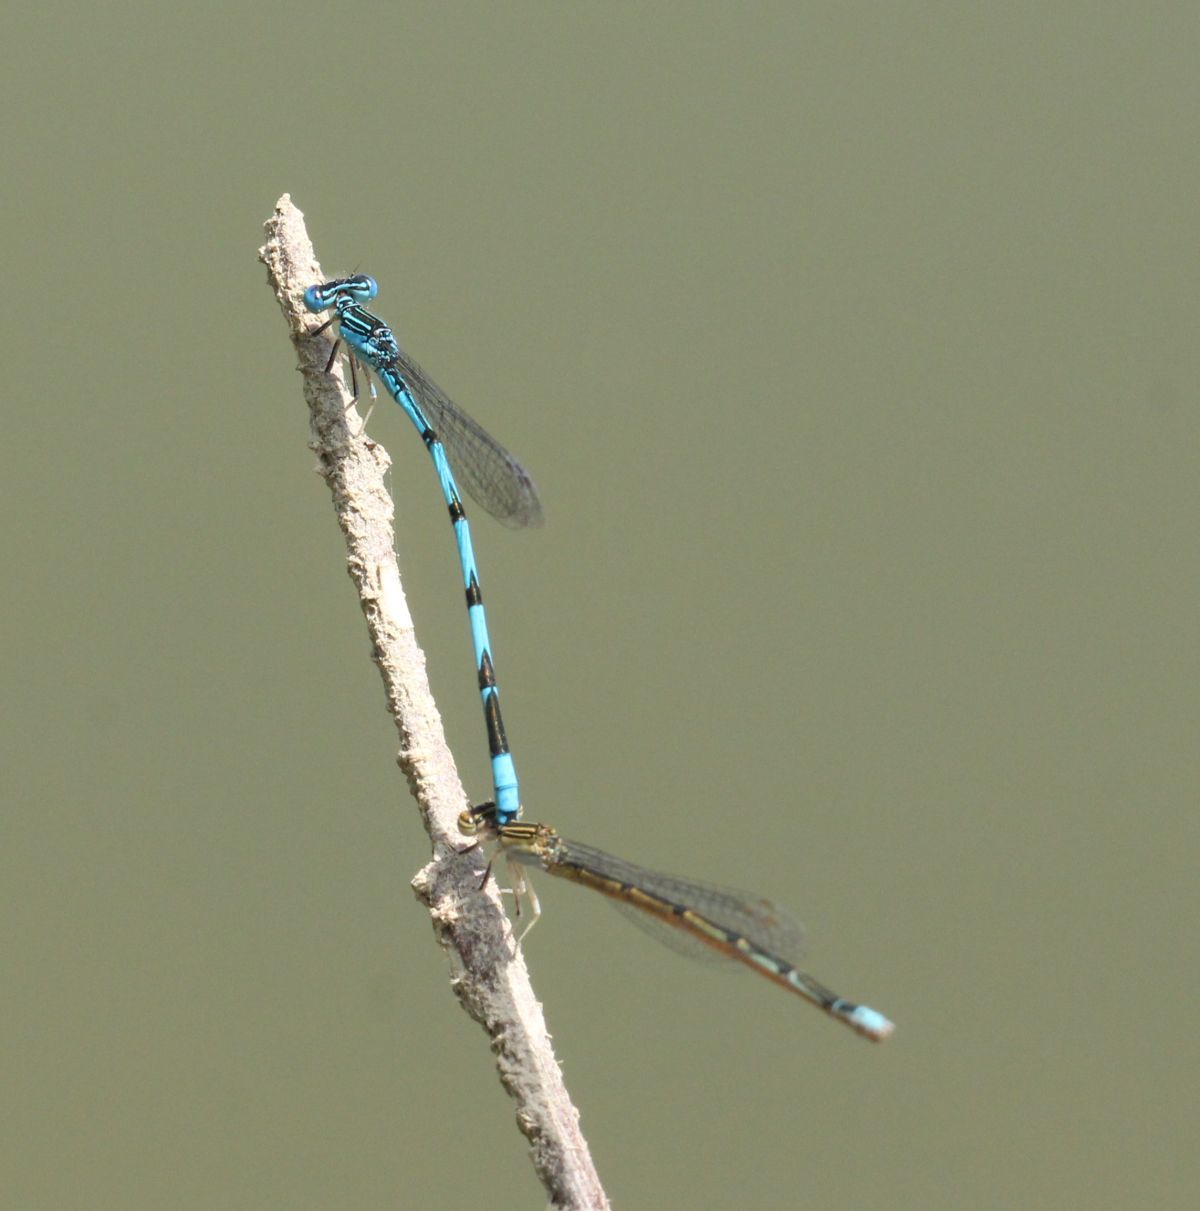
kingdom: Animalia
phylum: Arthropoda
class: Insecta
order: Odonata
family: Coenagrionidae
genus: Enallagma
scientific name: Enallagma basidens
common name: Double-striped bluet
